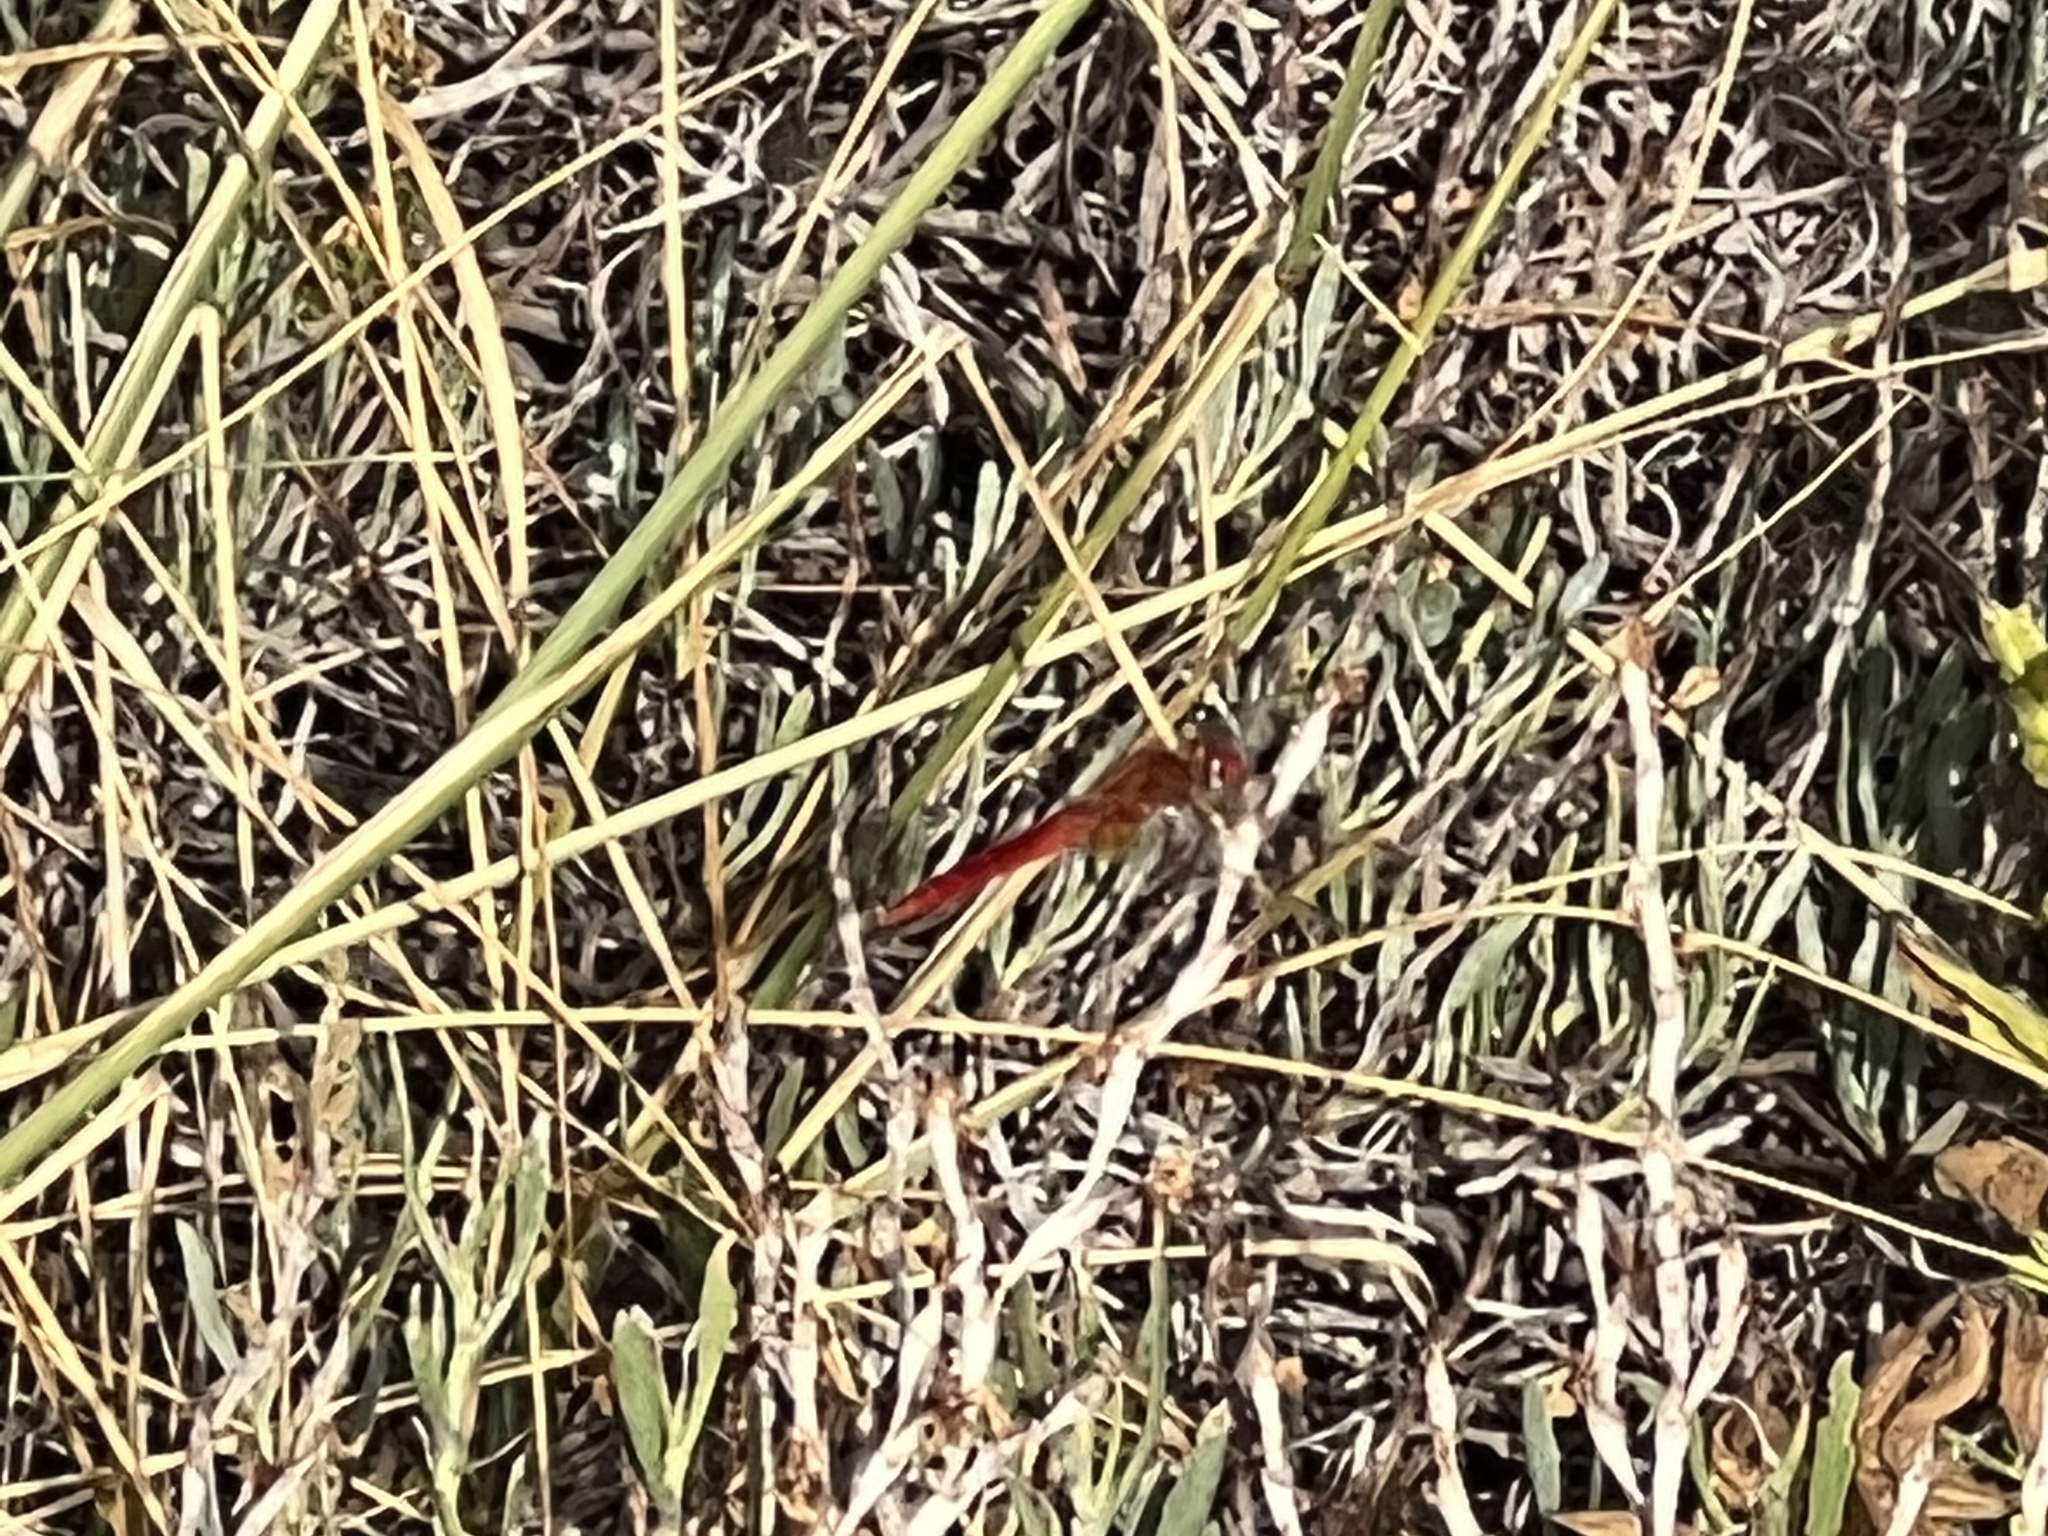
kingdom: Animalia
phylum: Arthropoda
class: Insecta
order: Odonata
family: Libellulidae
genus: Crocothemis
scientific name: Crocothemis erythraea
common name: Scarlet dragonfly
